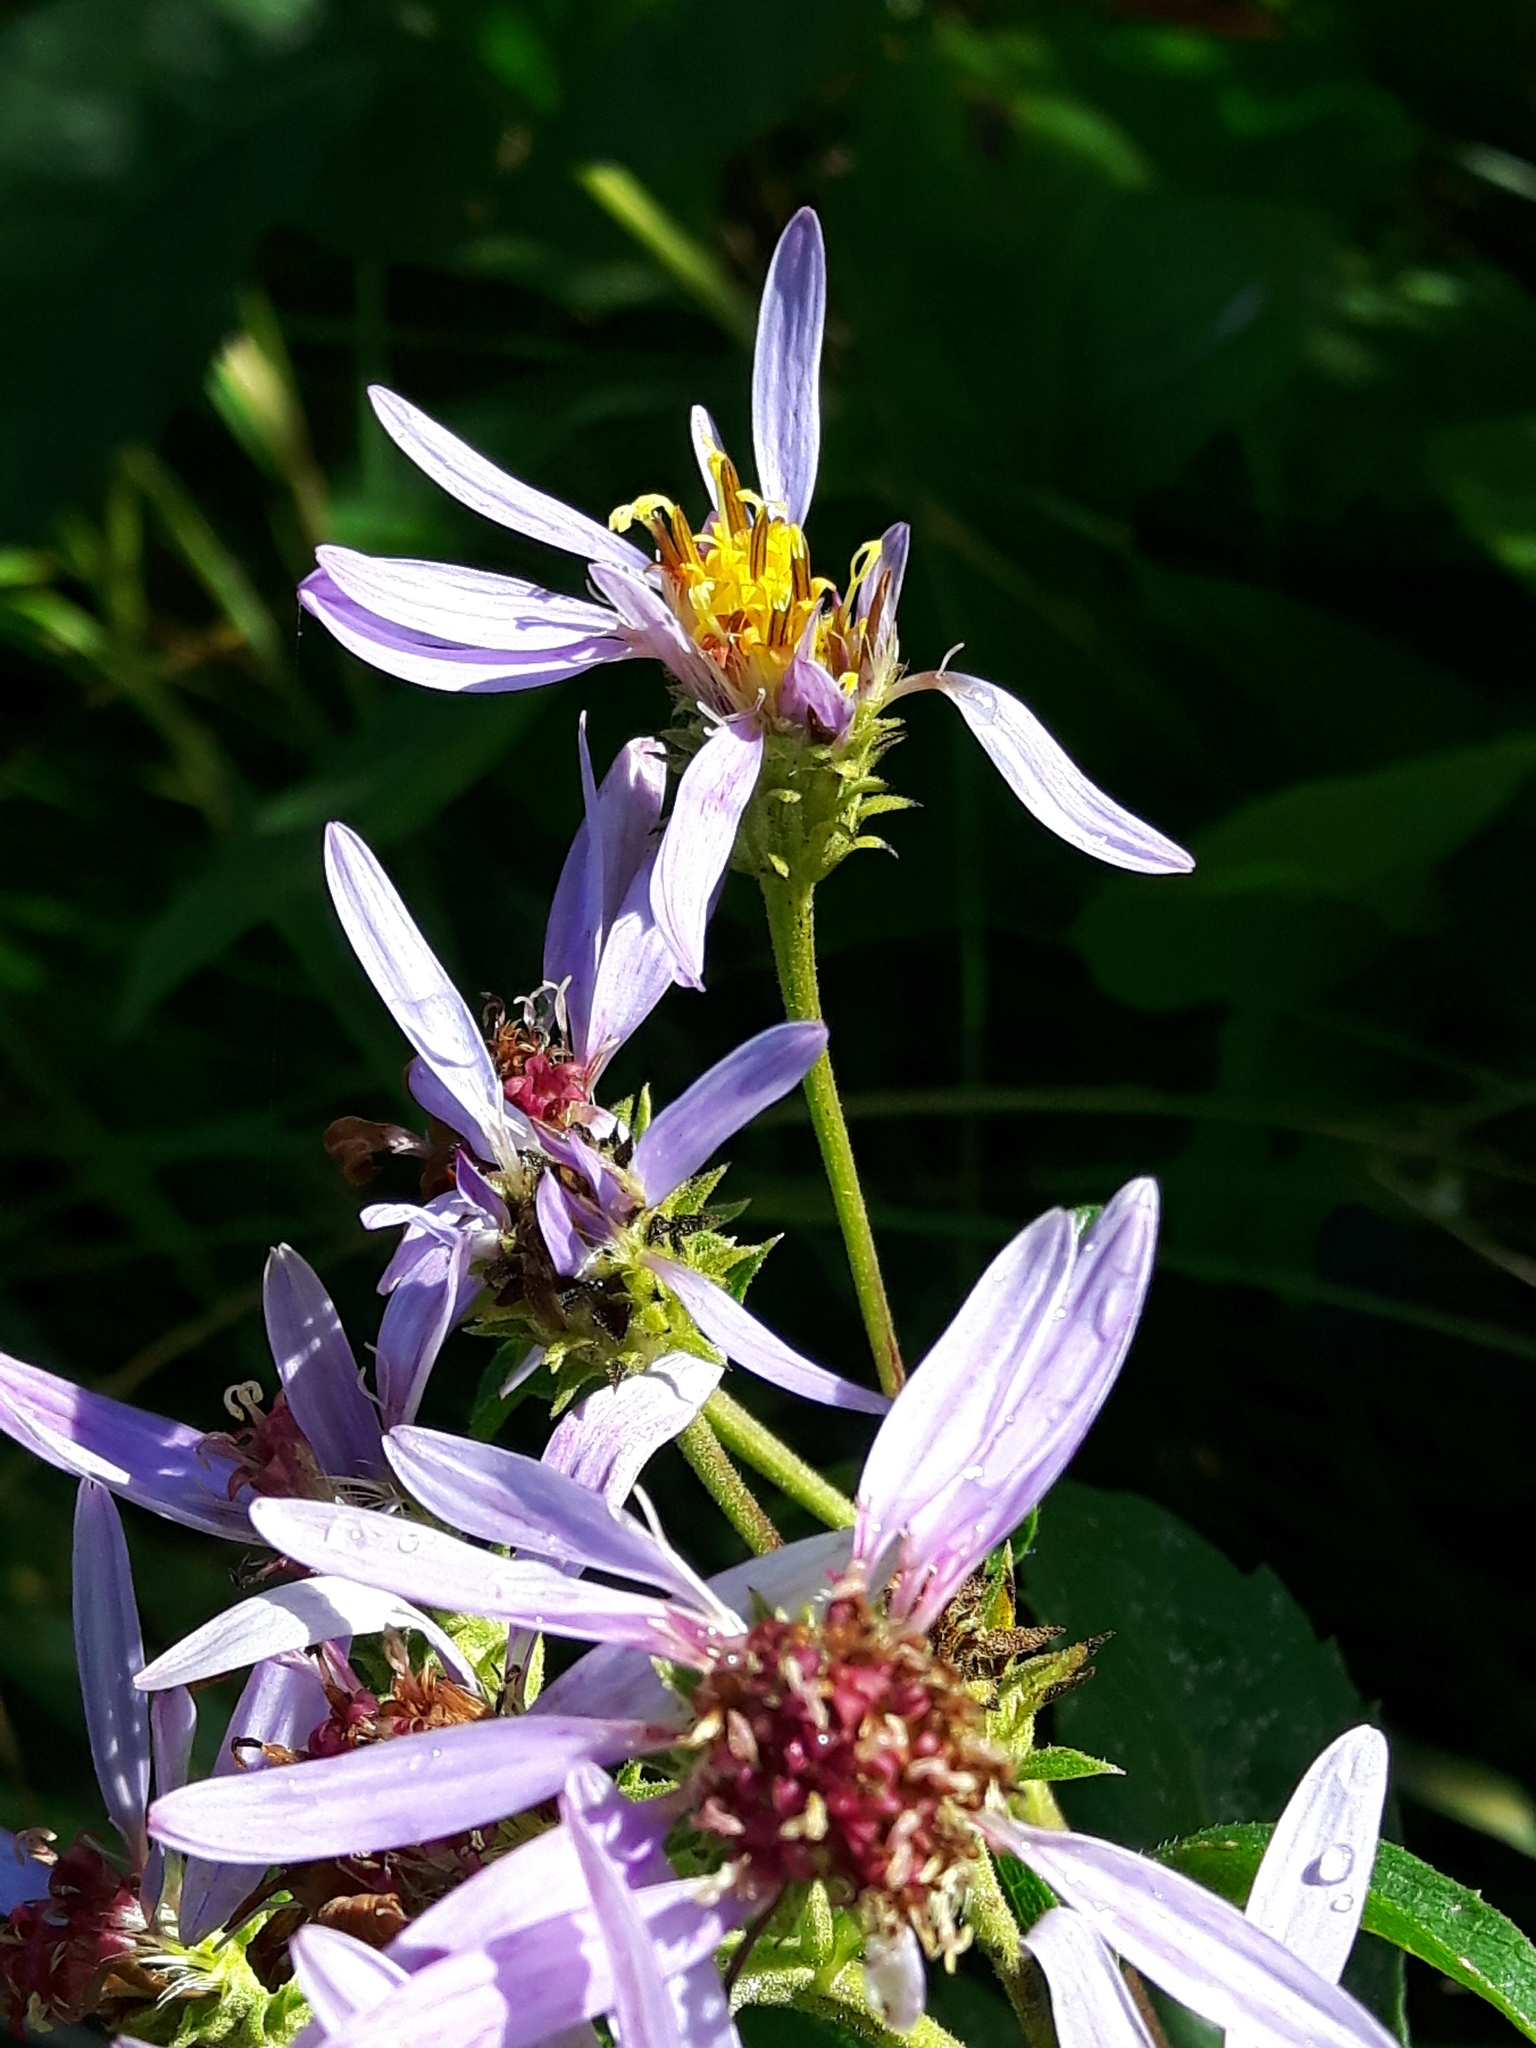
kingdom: Plantae
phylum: Tracheophyta
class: Magnoliopsida
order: Asterales
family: Asteraceae
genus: Eurybia
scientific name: Eurybia conspicua
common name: Showy aster
